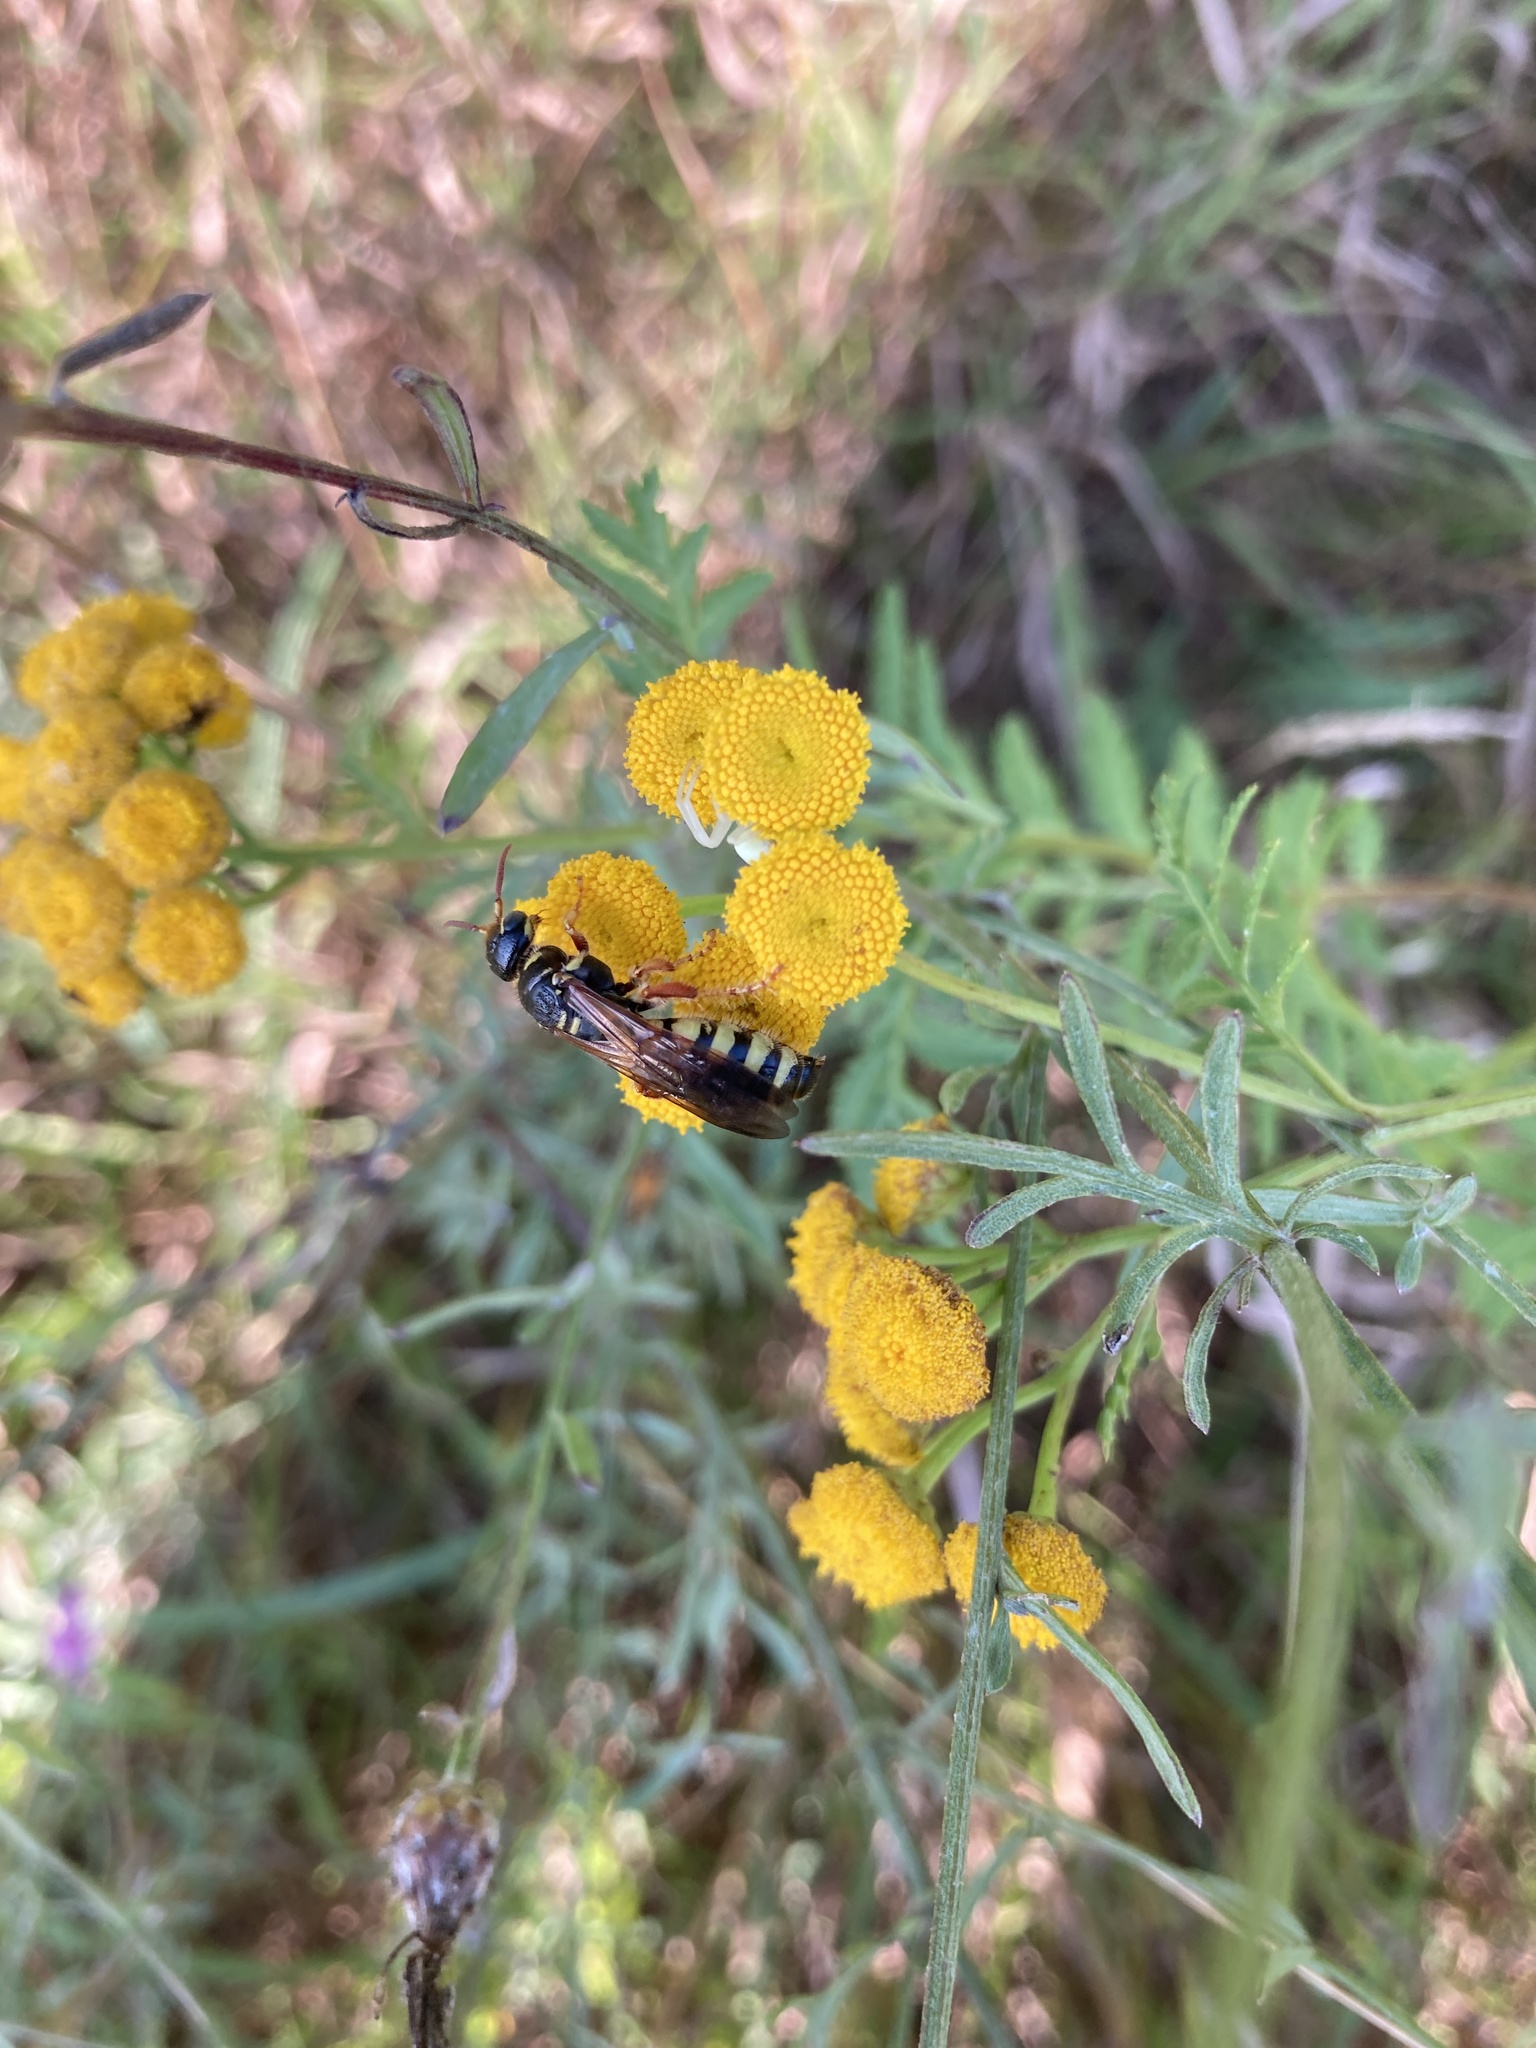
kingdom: Animalia
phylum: Arthropoda
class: Insecta
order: Hymenoptera
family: Tiphiidae
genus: Myzinum
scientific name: Myzinum quinquecinctum
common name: Five-banded thynnid wasp
